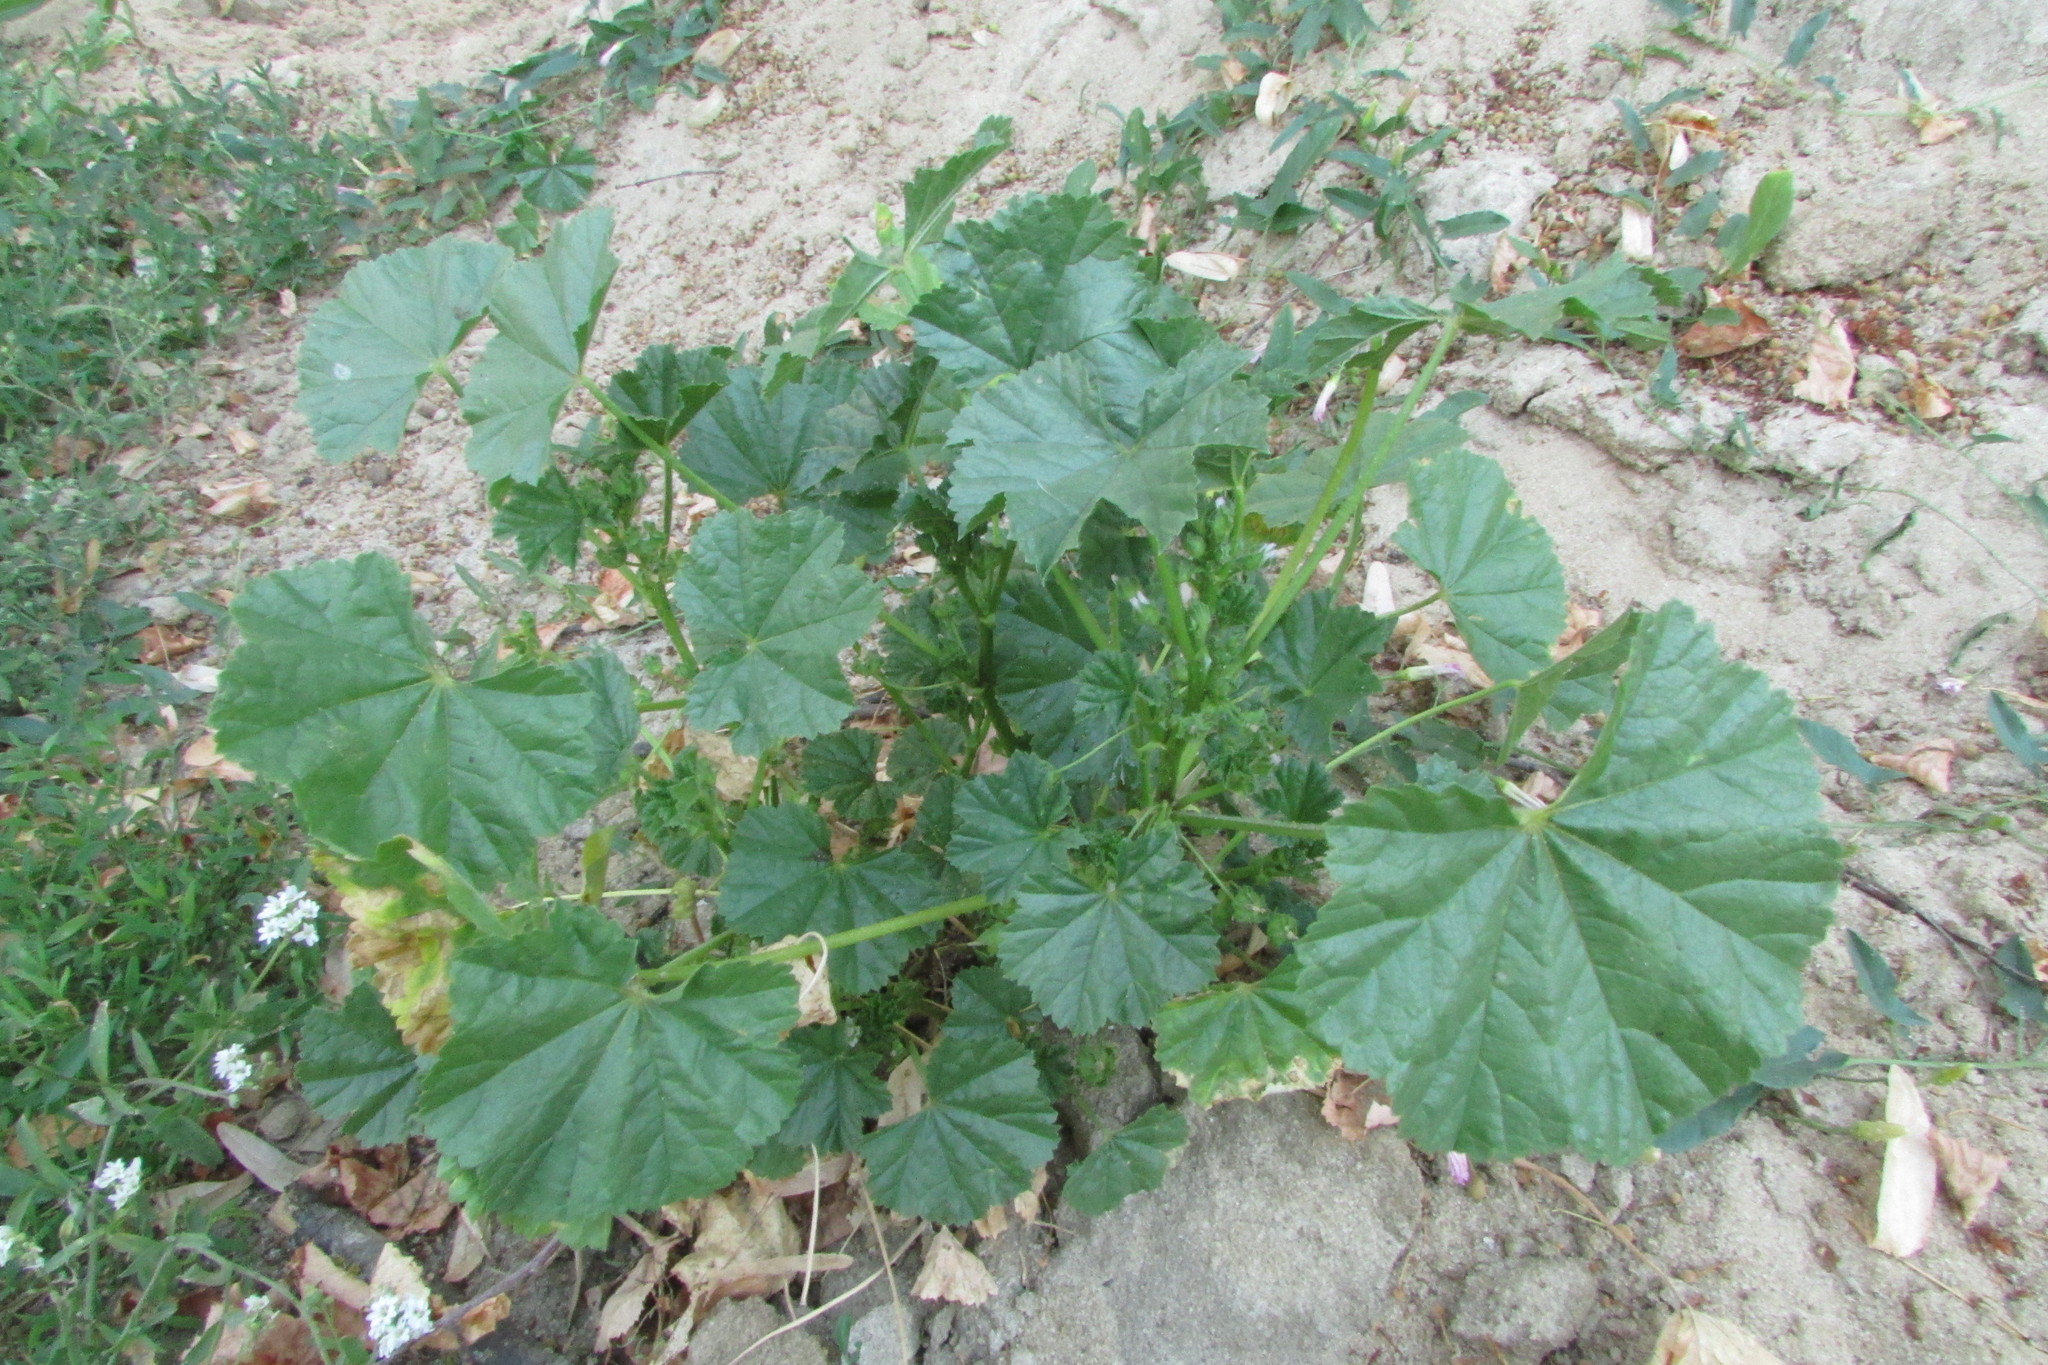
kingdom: Plantae
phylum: Tracheophyta
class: Magnoliopsida
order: Malvales
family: Malvaceae
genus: Malva
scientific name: Malva pusilla
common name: Small mallow
